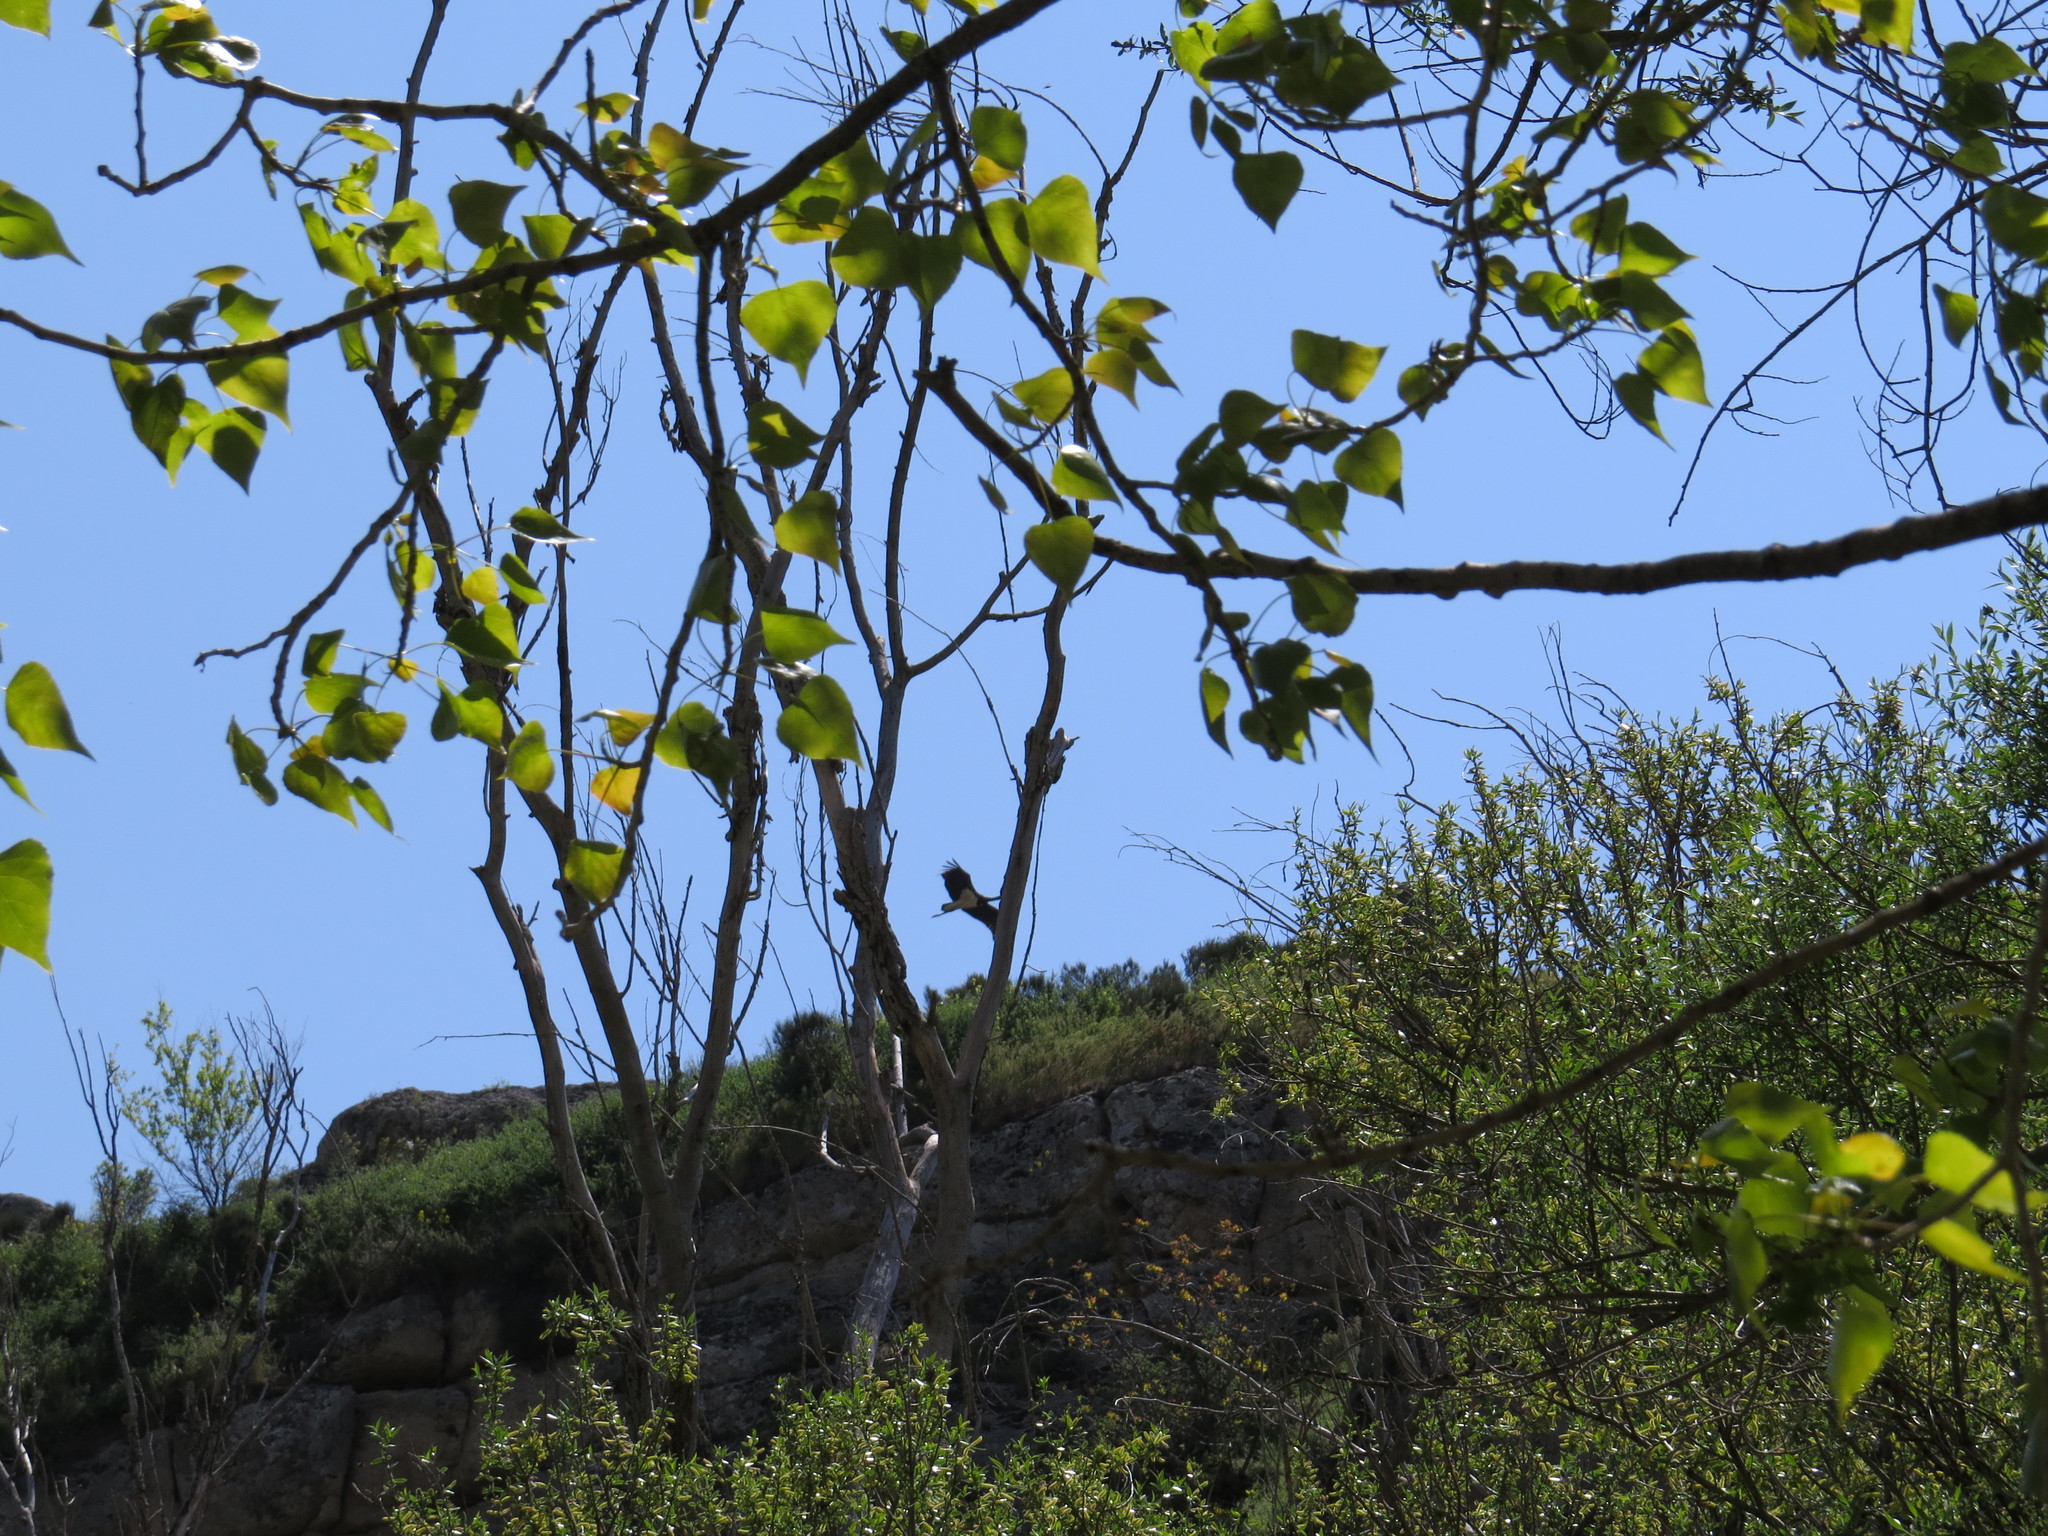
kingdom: Animalia
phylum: Chordata
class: Aves
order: Ciconiiformes
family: Ciconiidae
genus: Ciconia
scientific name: Ciconia nigra
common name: Black stork
